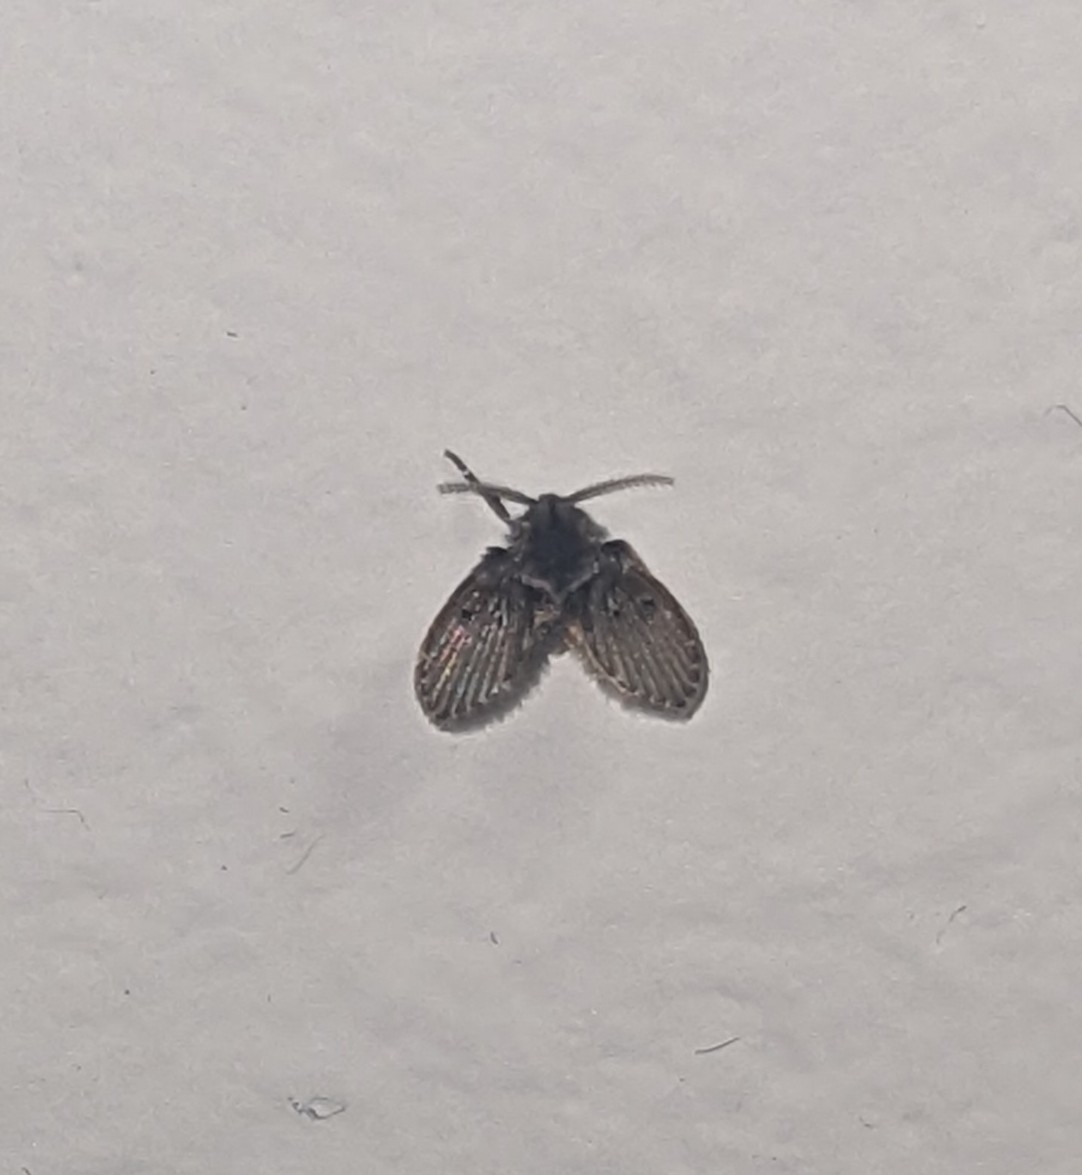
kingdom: Animalia
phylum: Arthropoda
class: Insecta
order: Diptera
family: Psychodidae
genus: Clogmia
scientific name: Clogmia albipunctatus
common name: White-spotted moth fly
